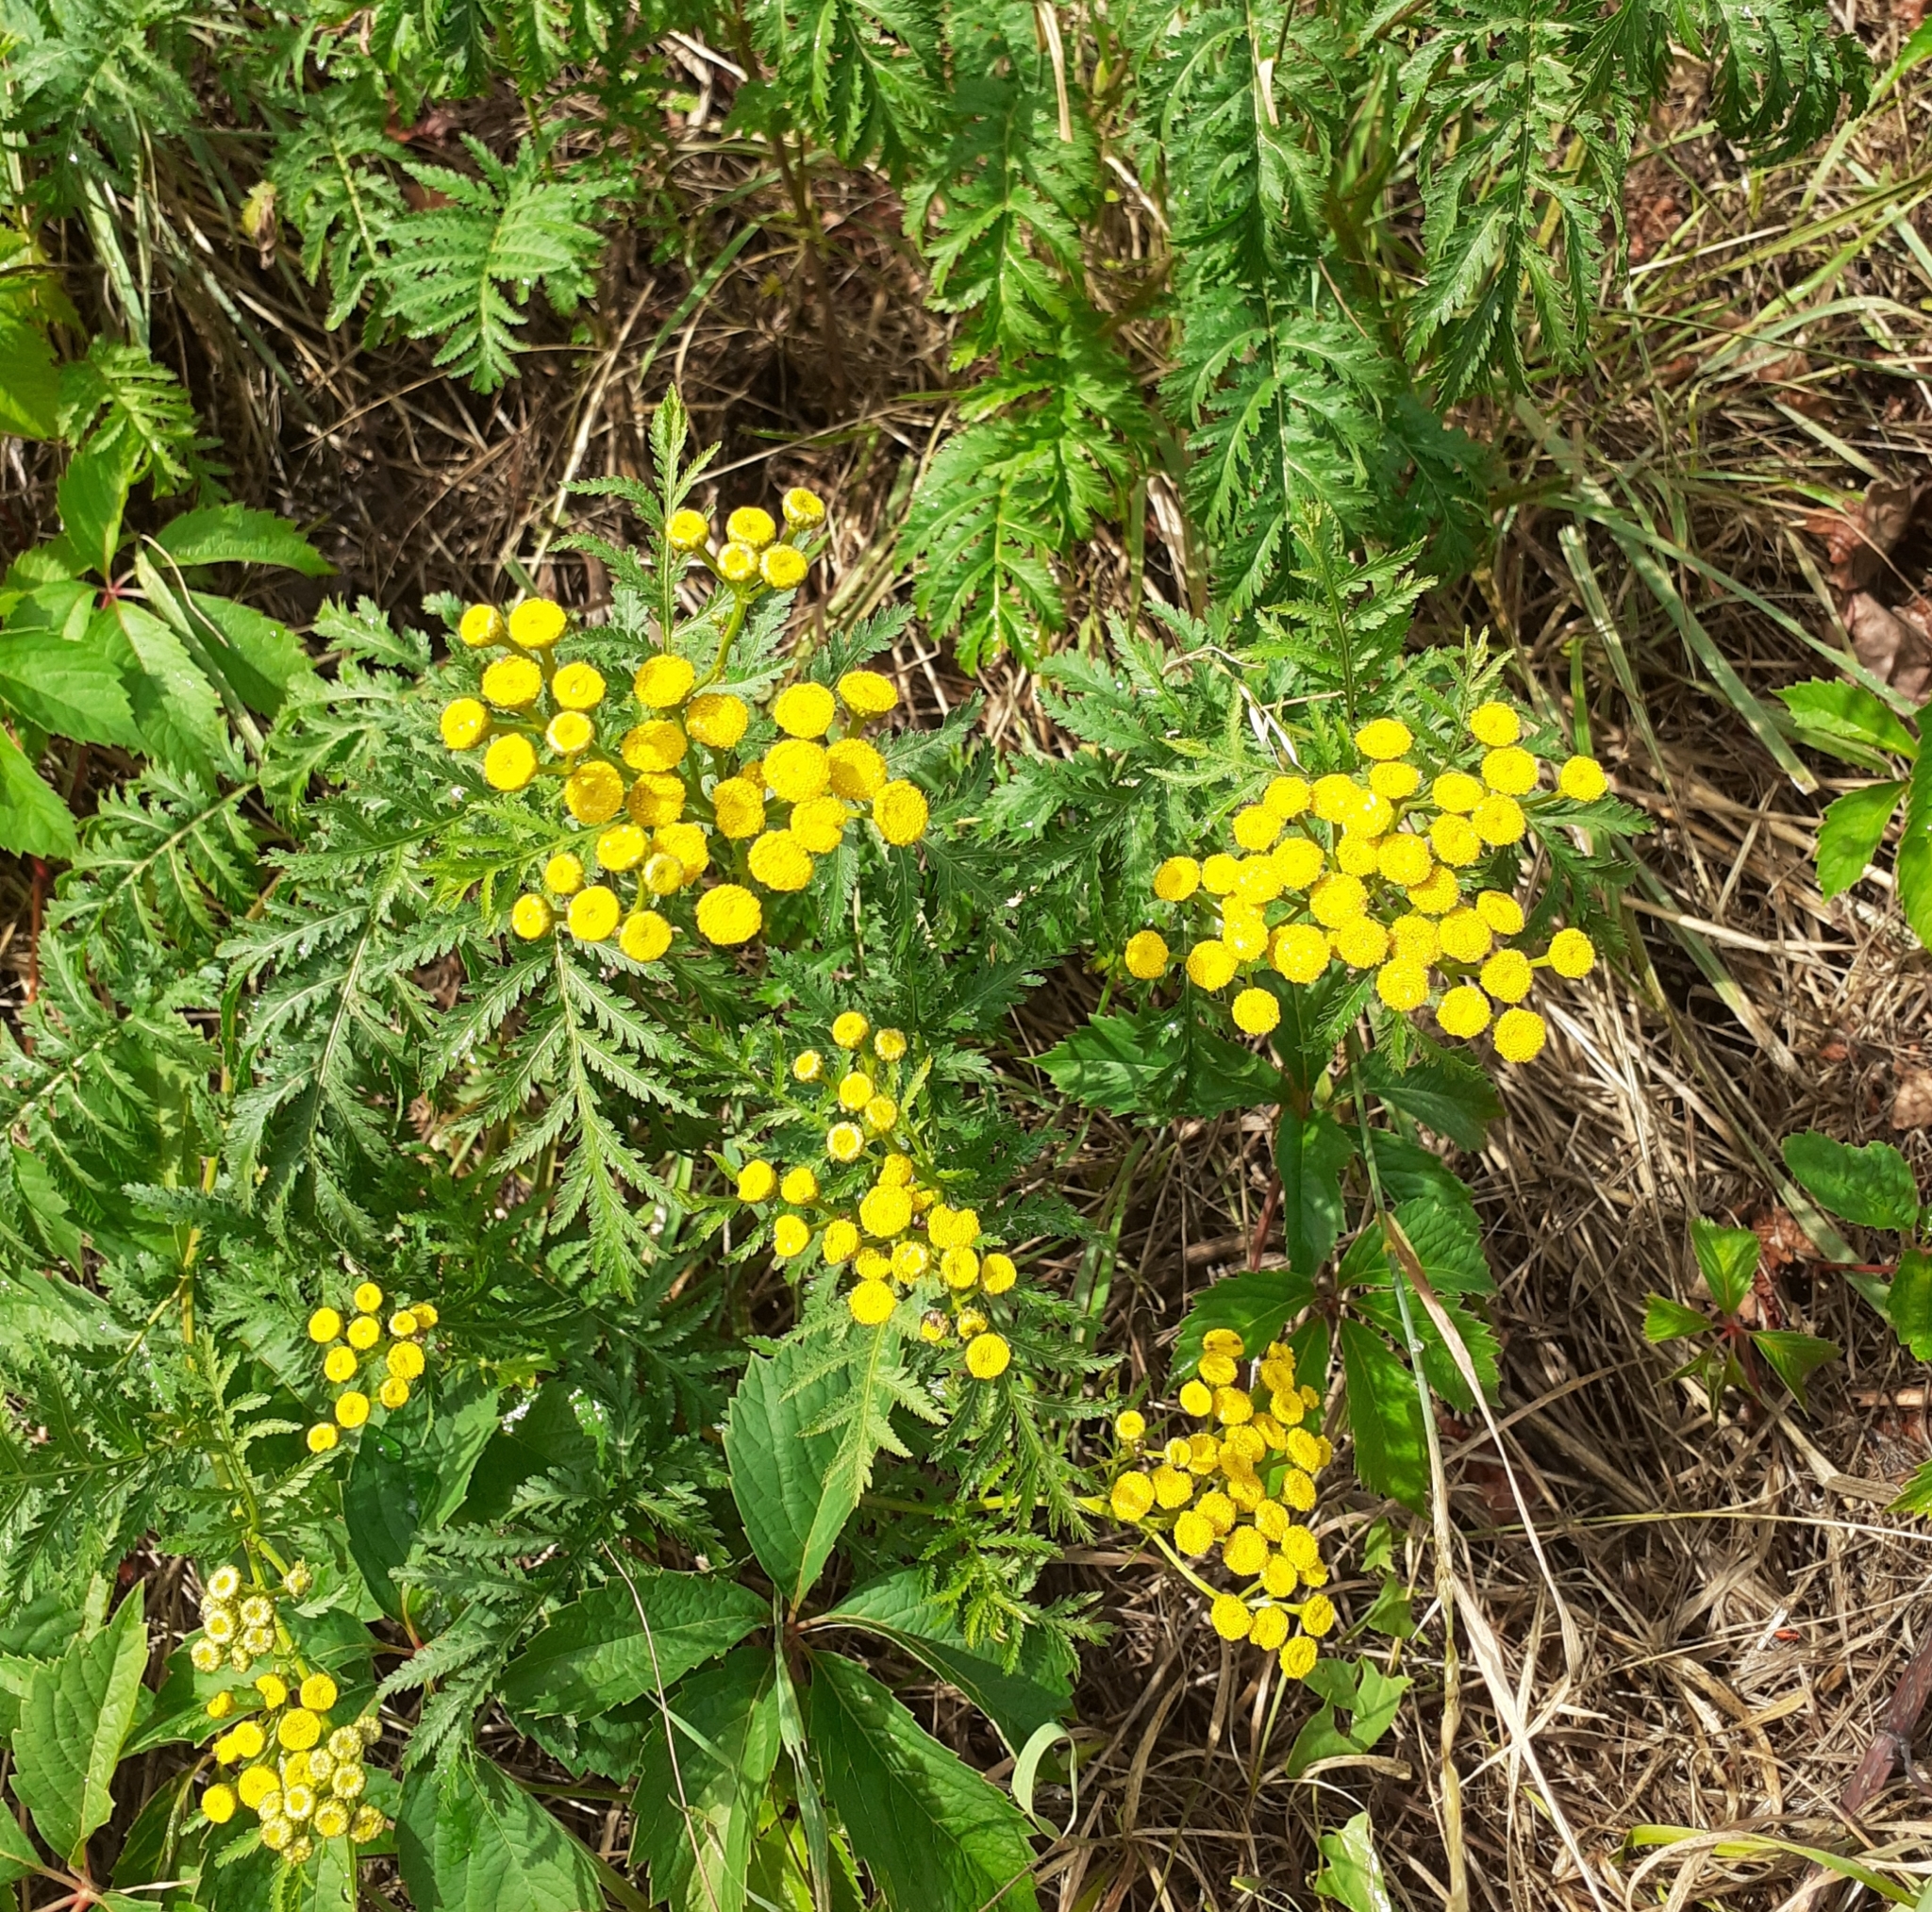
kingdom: Plantae
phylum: Tracheophyta
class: Magnoliopsida
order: Asterales
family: Asteraceae
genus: Tanacetum
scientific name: Tanacetum vulgare
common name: Common tansy
